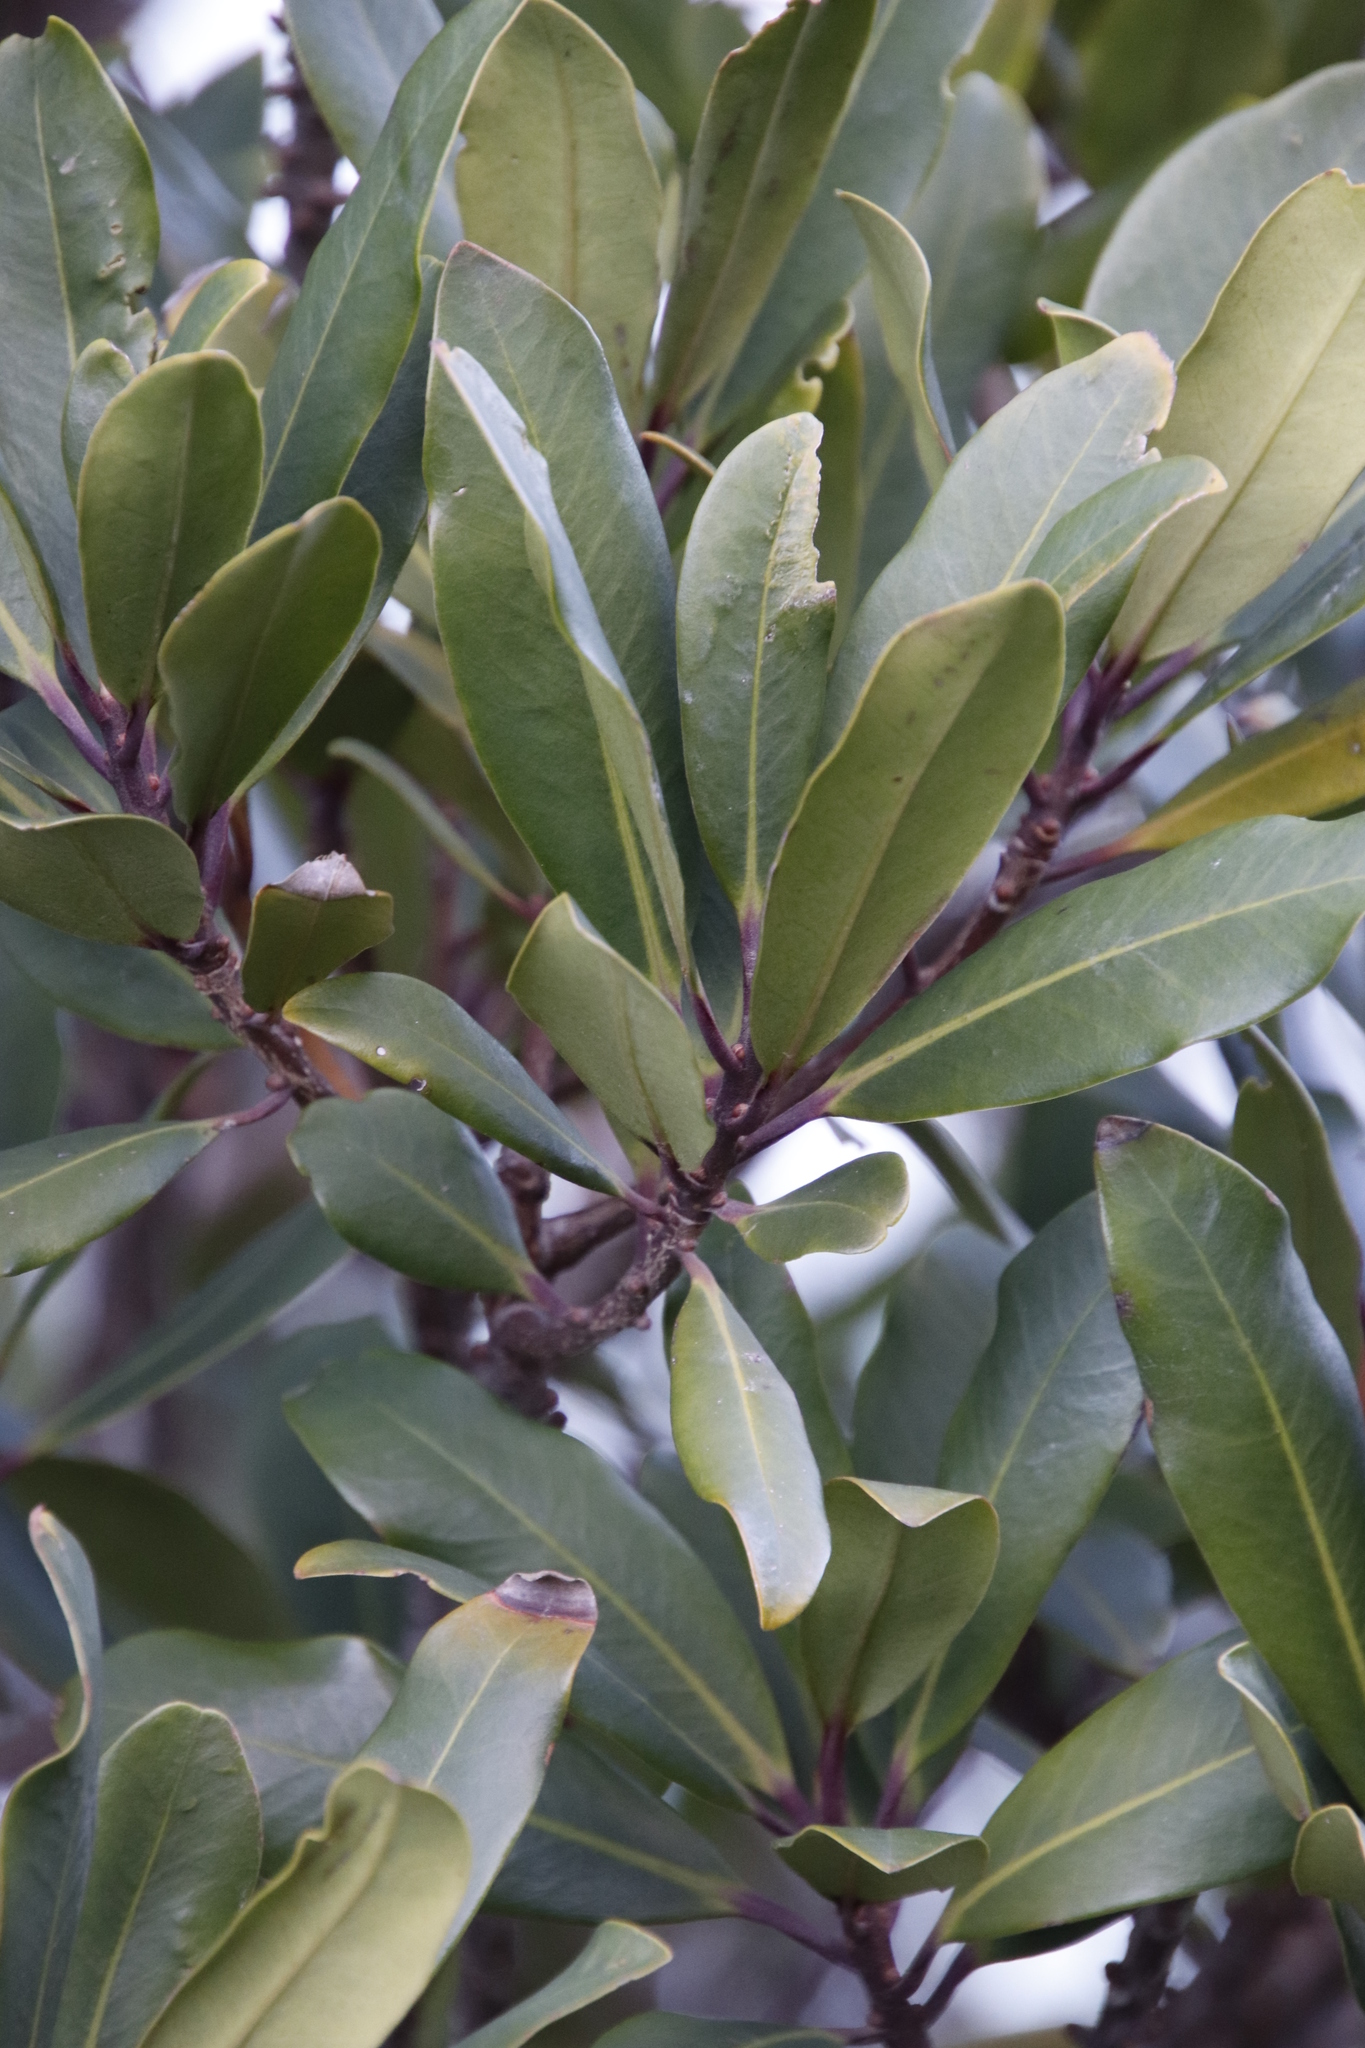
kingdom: Plantae
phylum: Tracheophyta
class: Magnoliopsida
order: Ericales
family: Primulaceae
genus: Myrsine
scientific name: Myrsine melanophloeos
